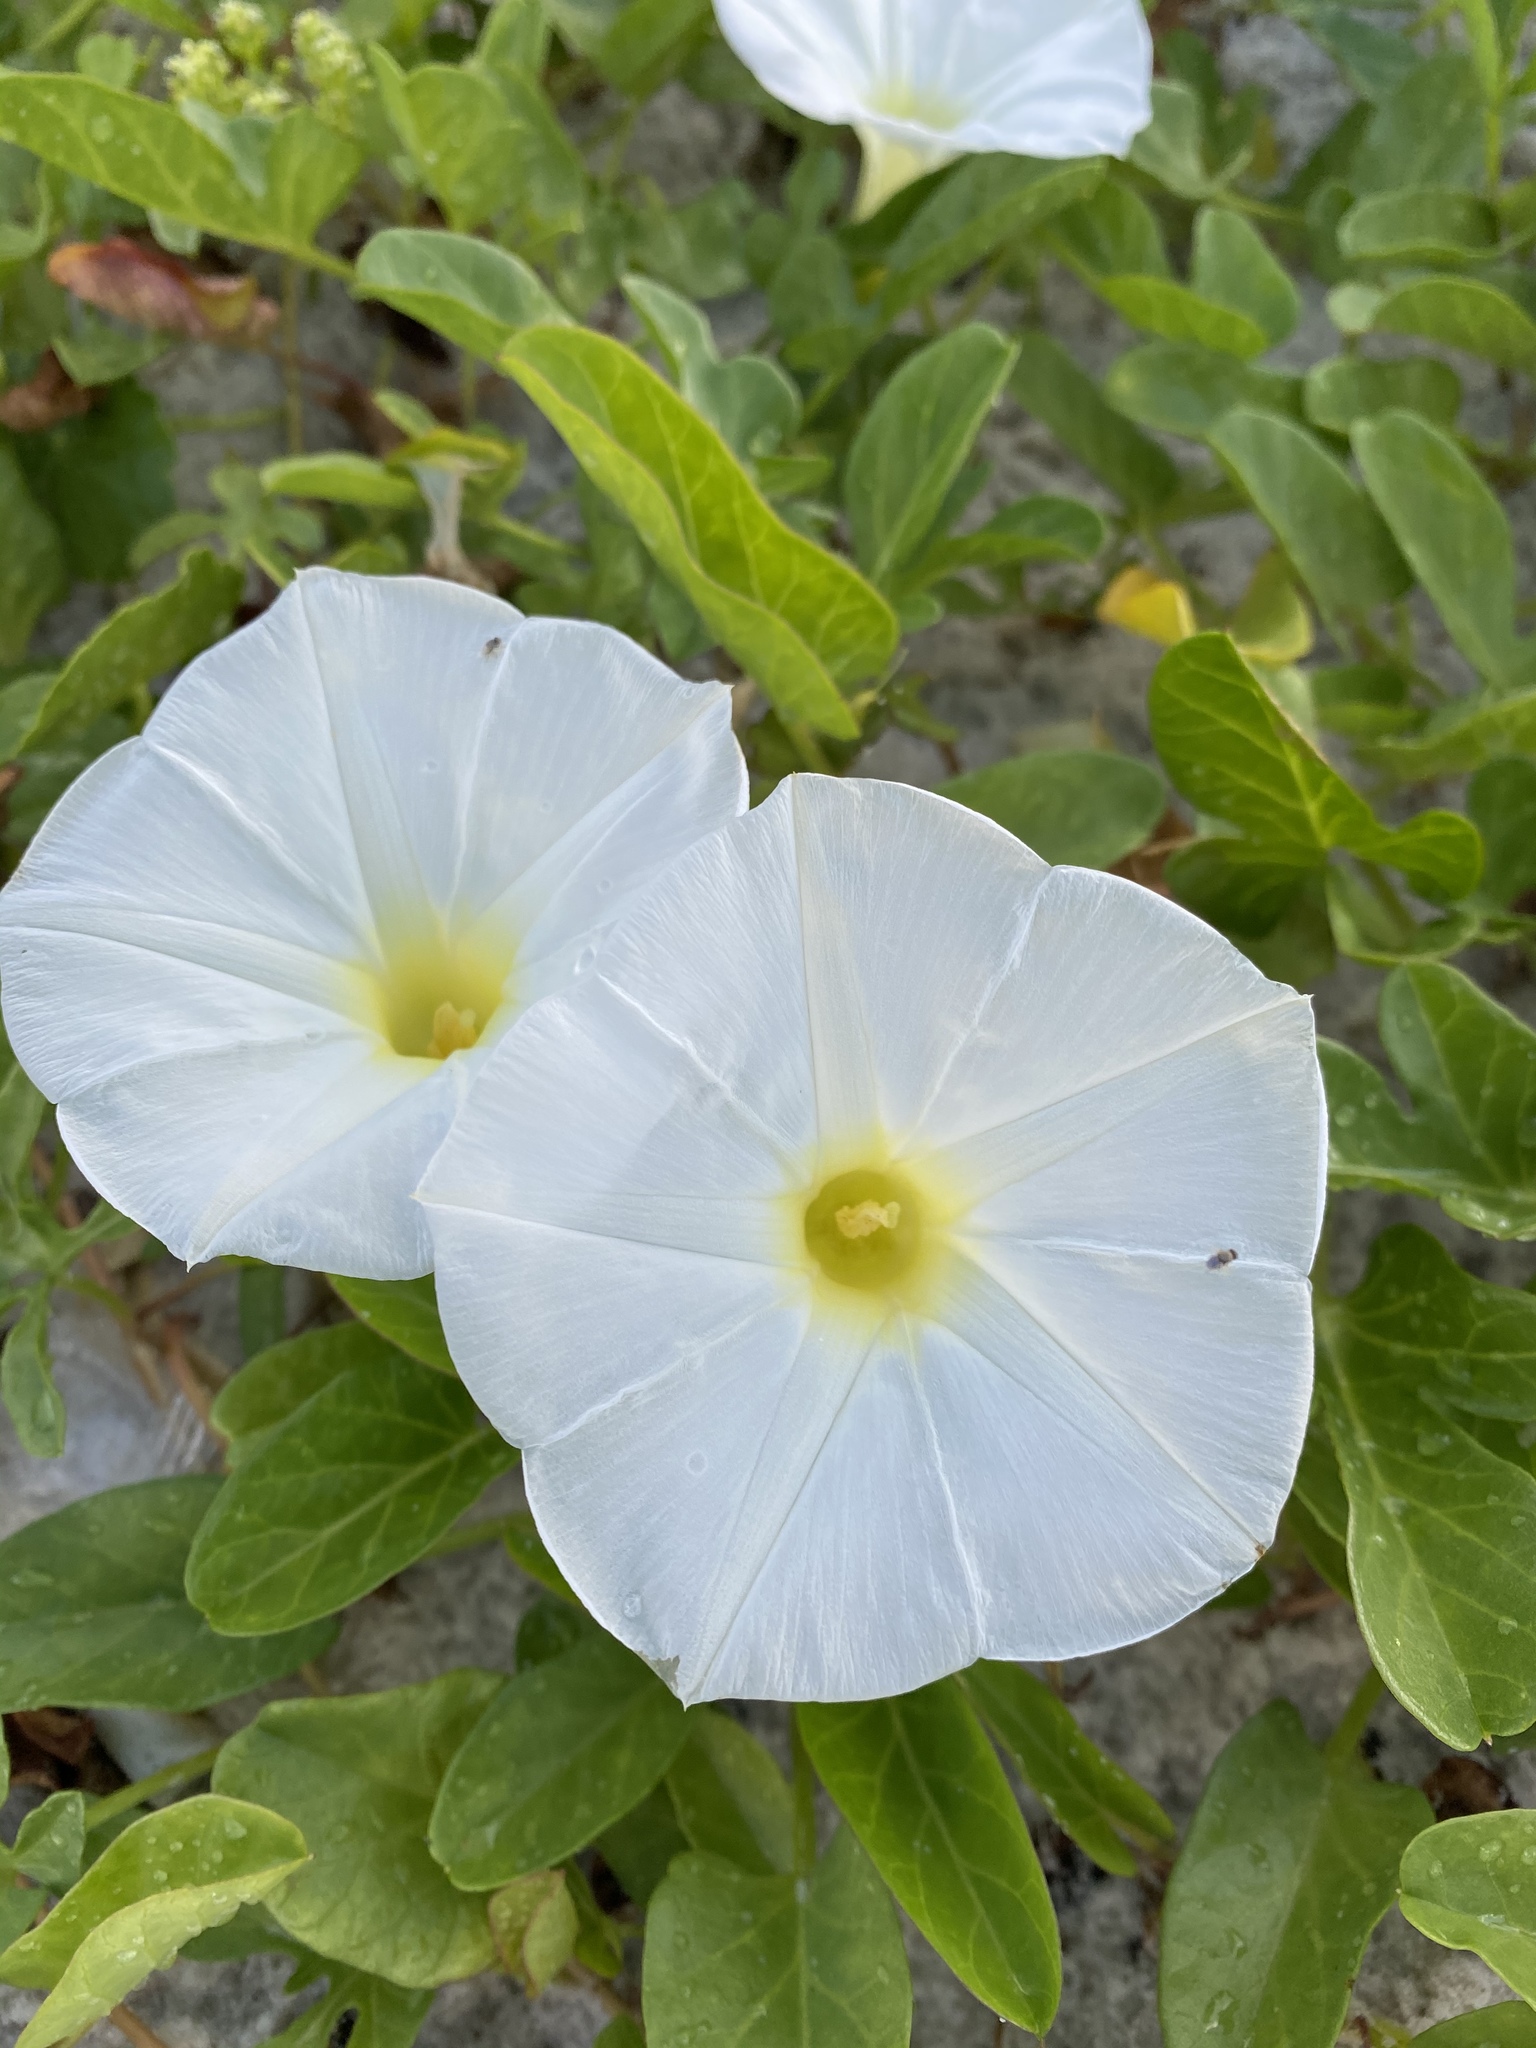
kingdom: Plantae
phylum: Tracheophyta
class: Magnoliopsida
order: Solanales
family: Convolvulaceae
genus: Ipomoea
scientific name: Ipomoea imperati
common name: Fiddle-leaf morning-glory
